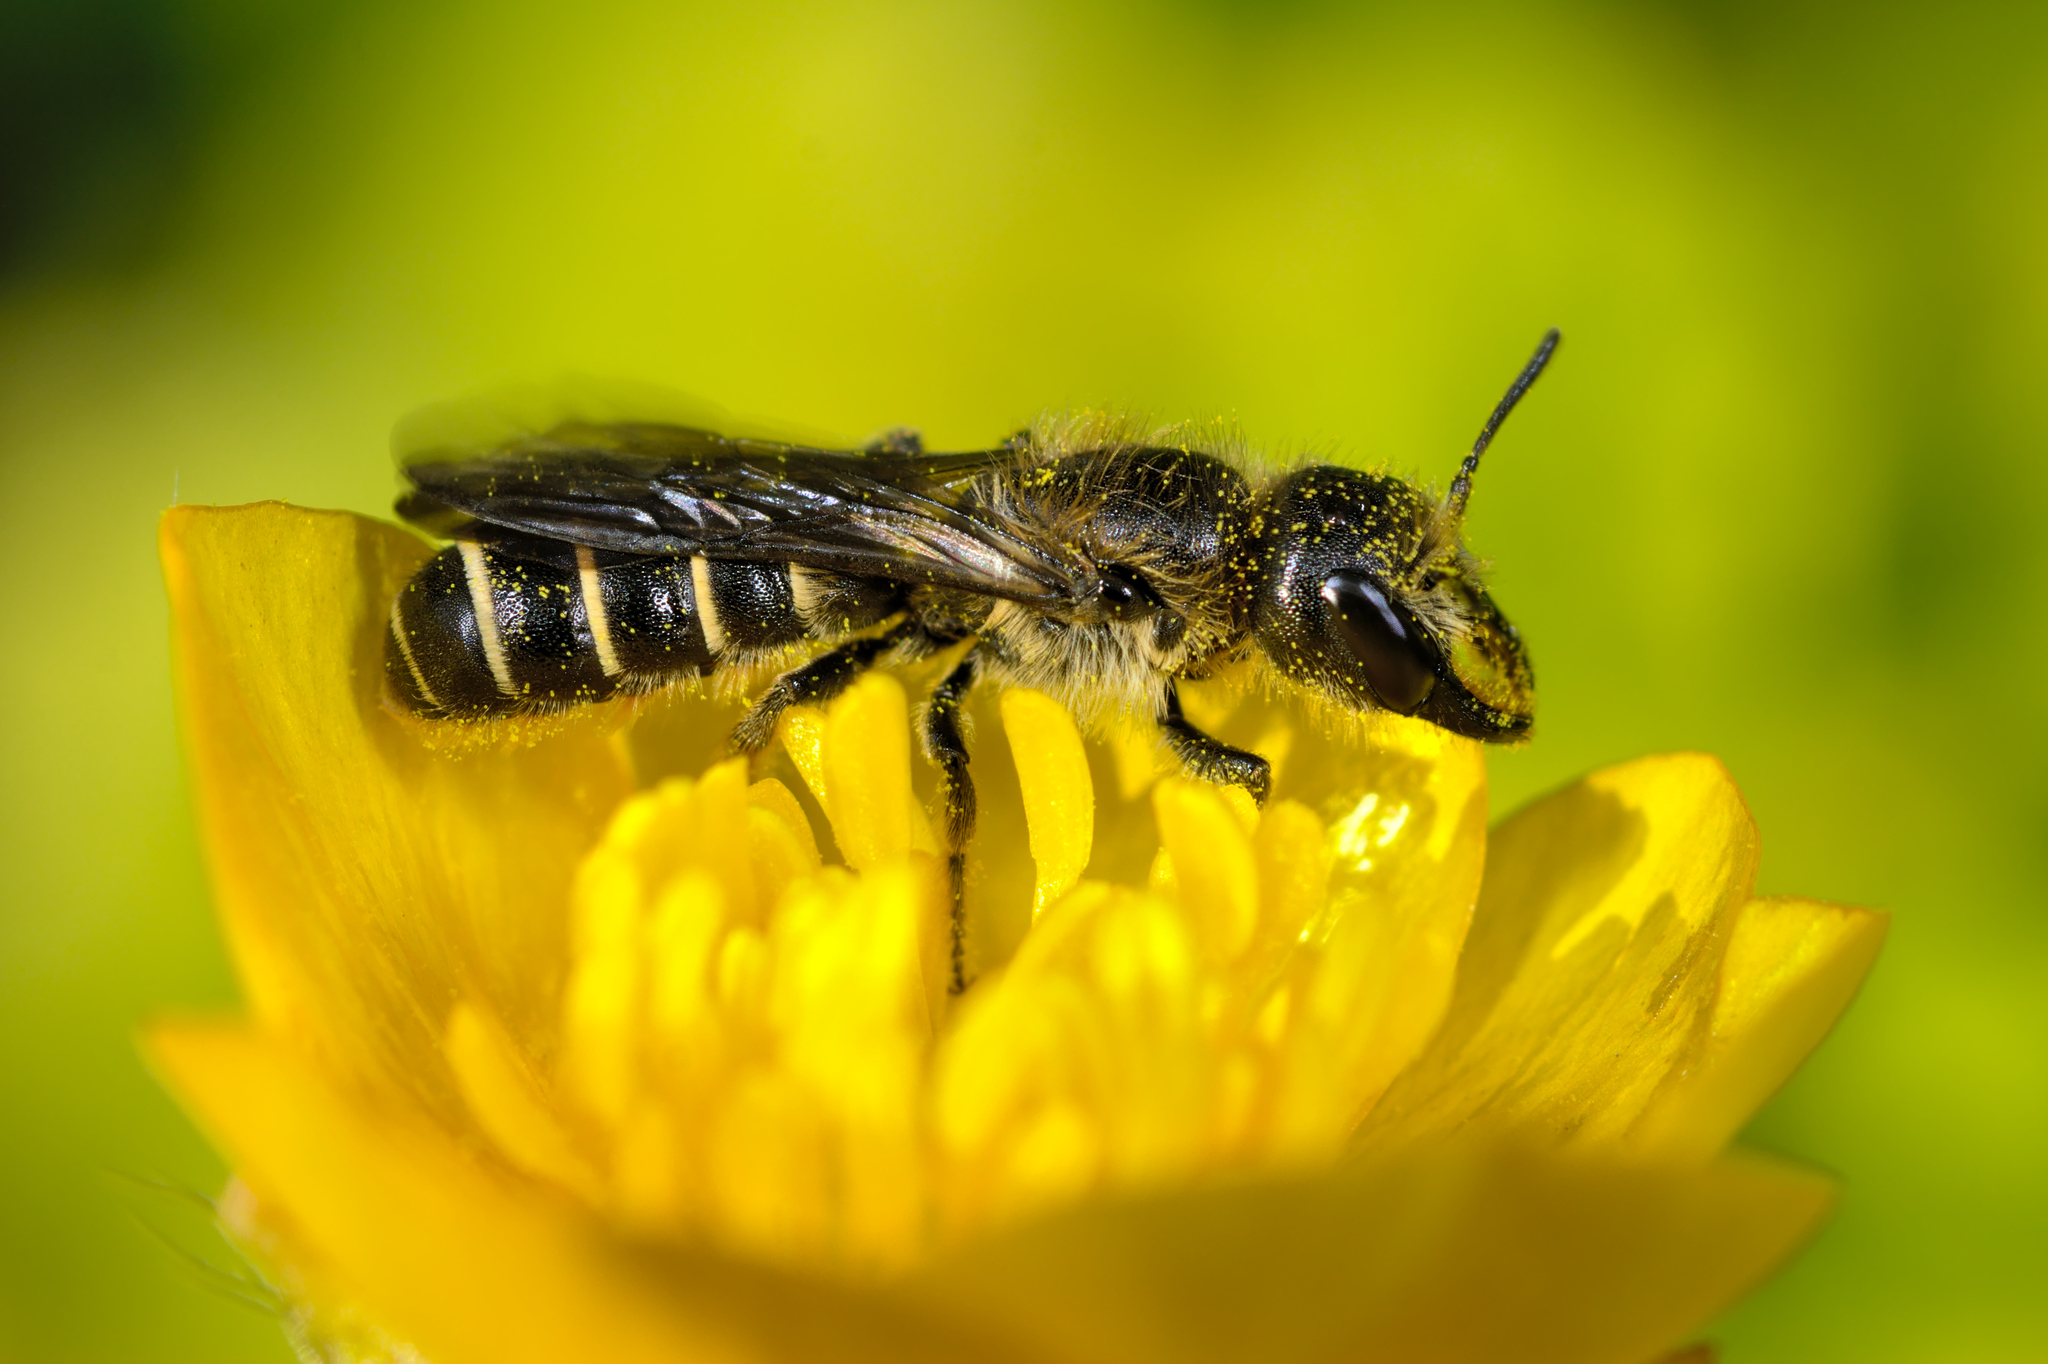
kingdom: Animalia
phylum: Arthropoda
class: Insecta
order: Hymenoptera
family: Megachilidae
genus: Chelostoma
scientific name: Chelostoma florisomne
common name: Sleepy carpenter bee
